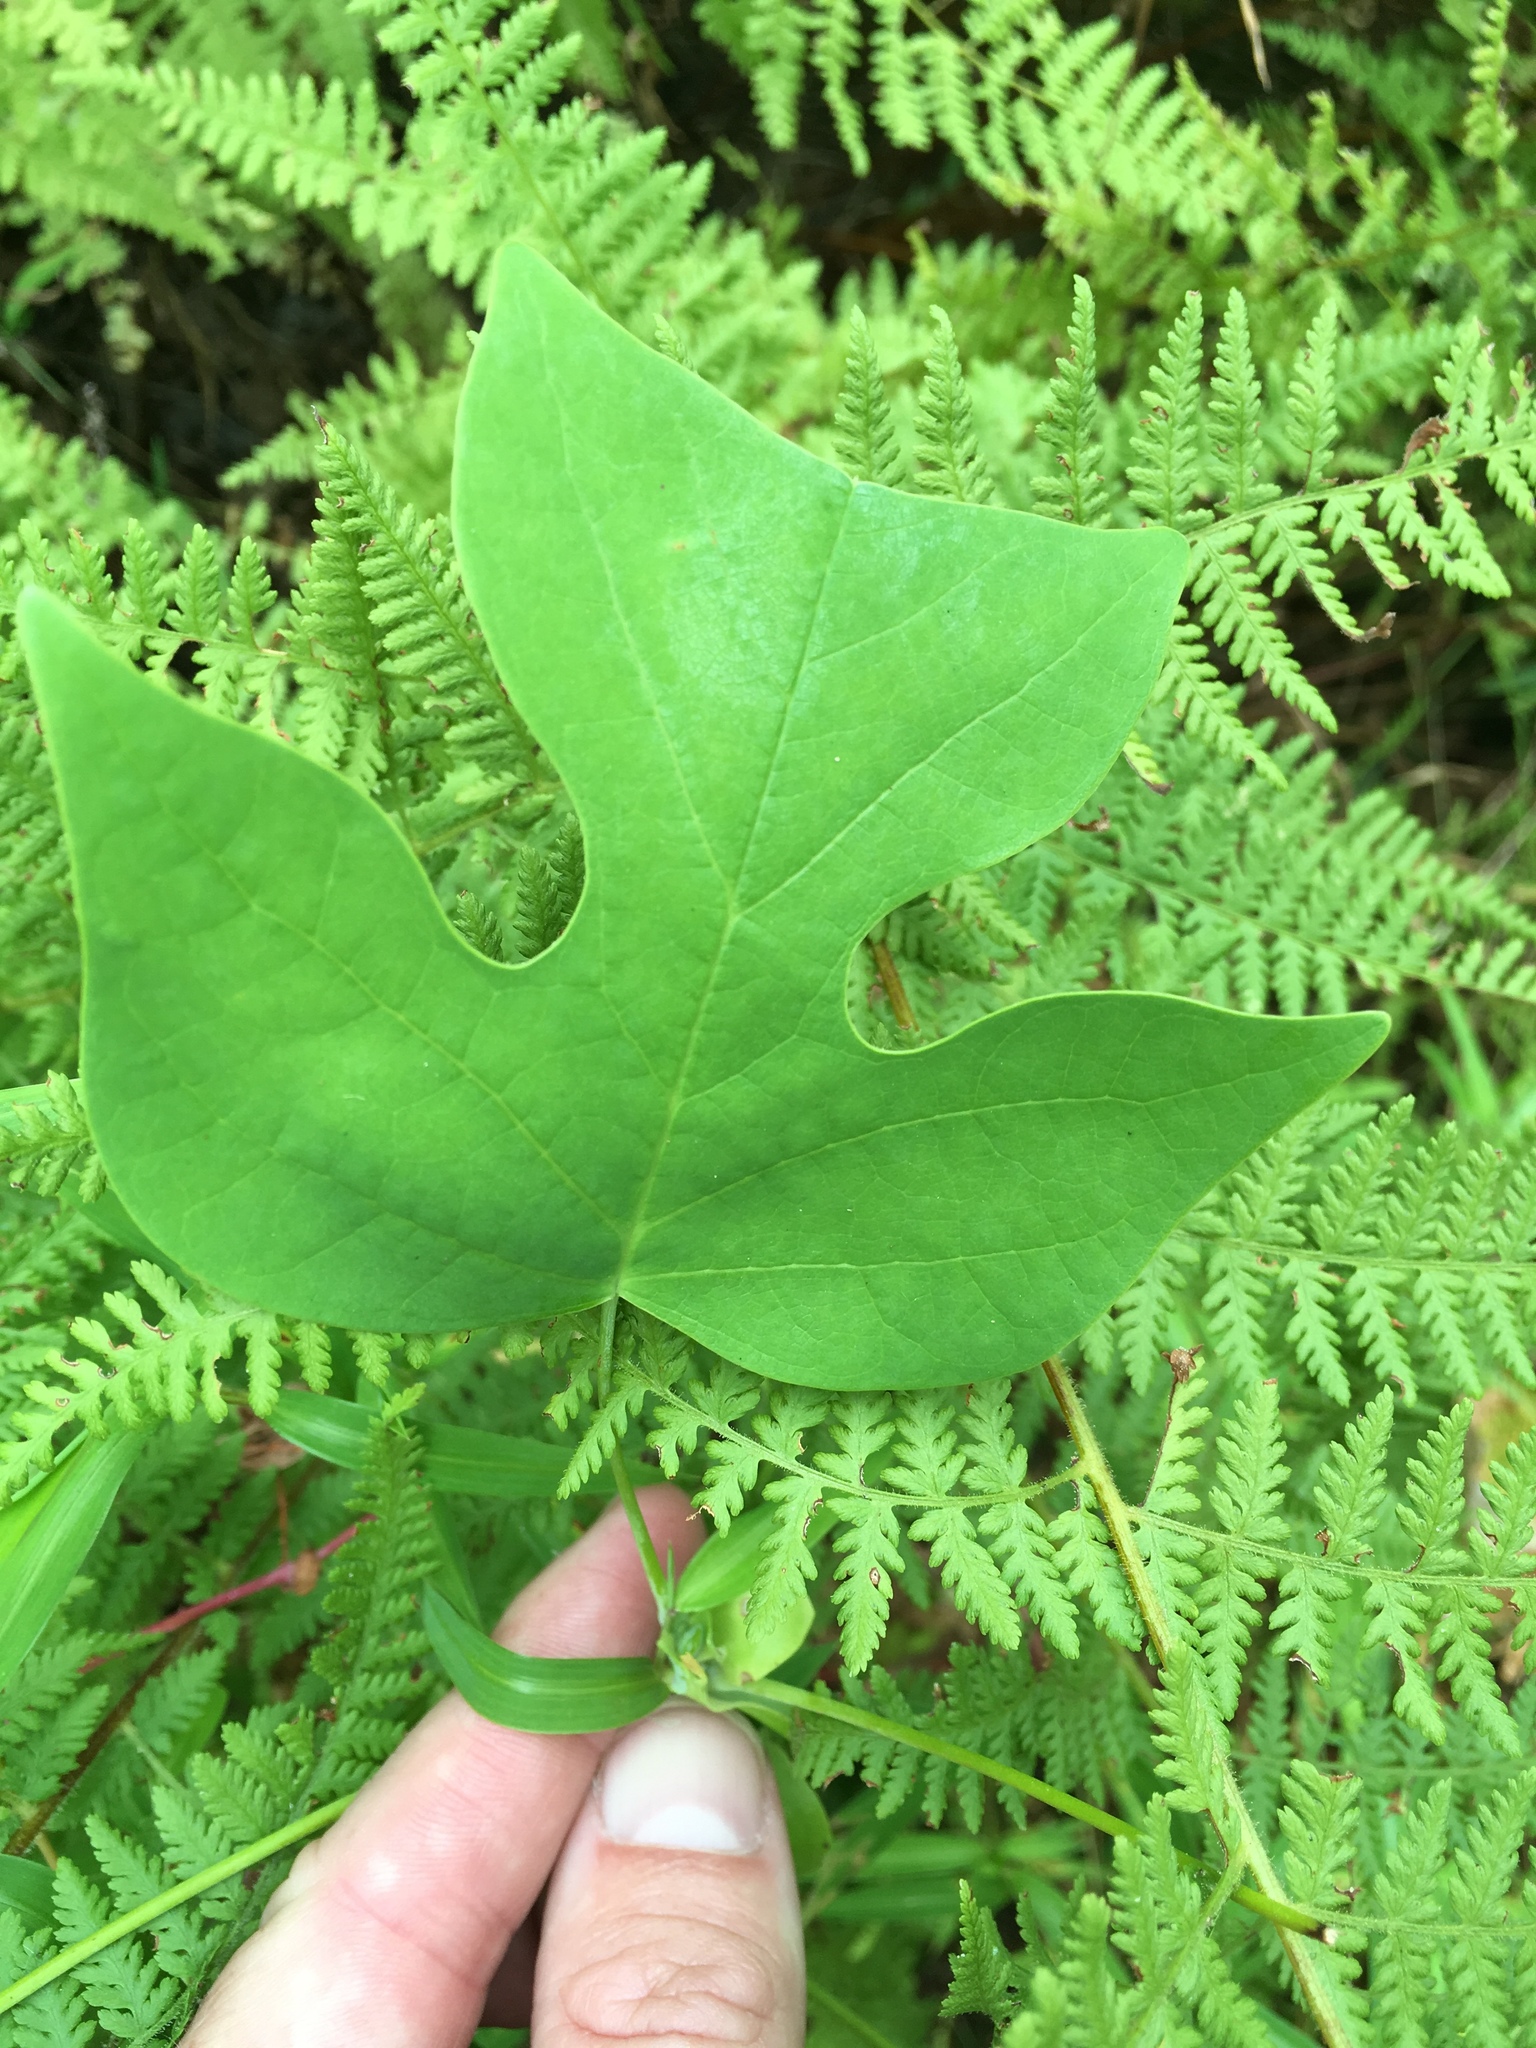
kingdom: Plantae
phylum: Tracheophyta
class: Magnoliopsida
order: Magnoliales
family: Magnoliaceae
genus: Liriodendron
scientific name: Liriodendron tulipifera
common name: Tulip tree
